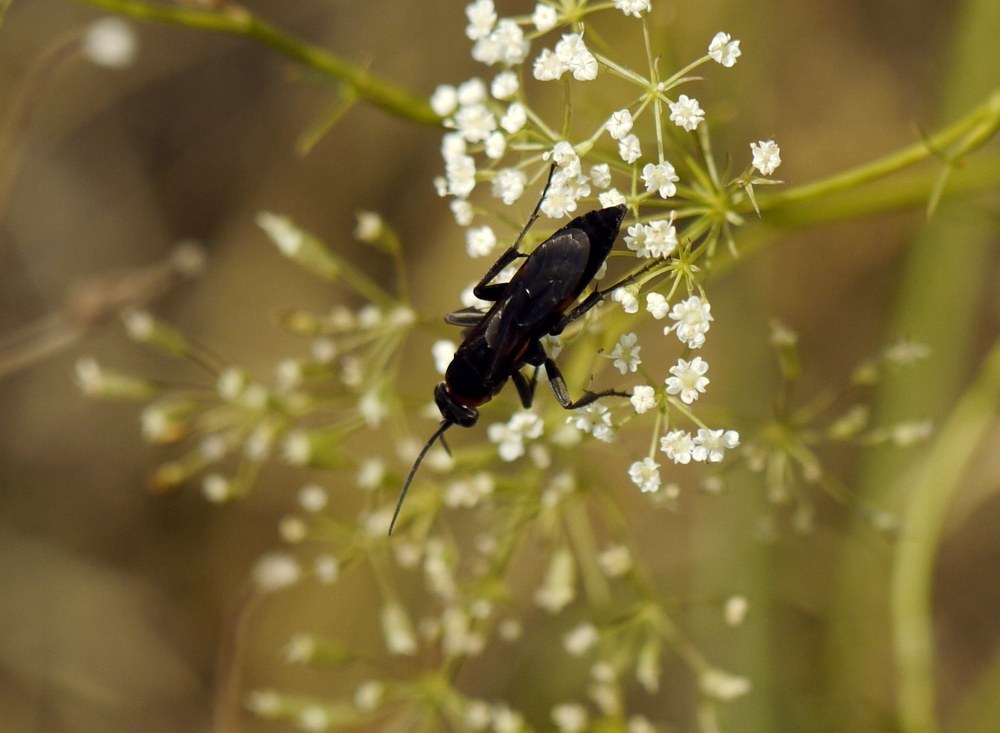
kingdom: Animalia
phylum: Arthropoda
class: Insecta
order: Hymenoptera
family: Pompilidae
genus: Eoferreola
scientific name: Eoferreola erythraea
